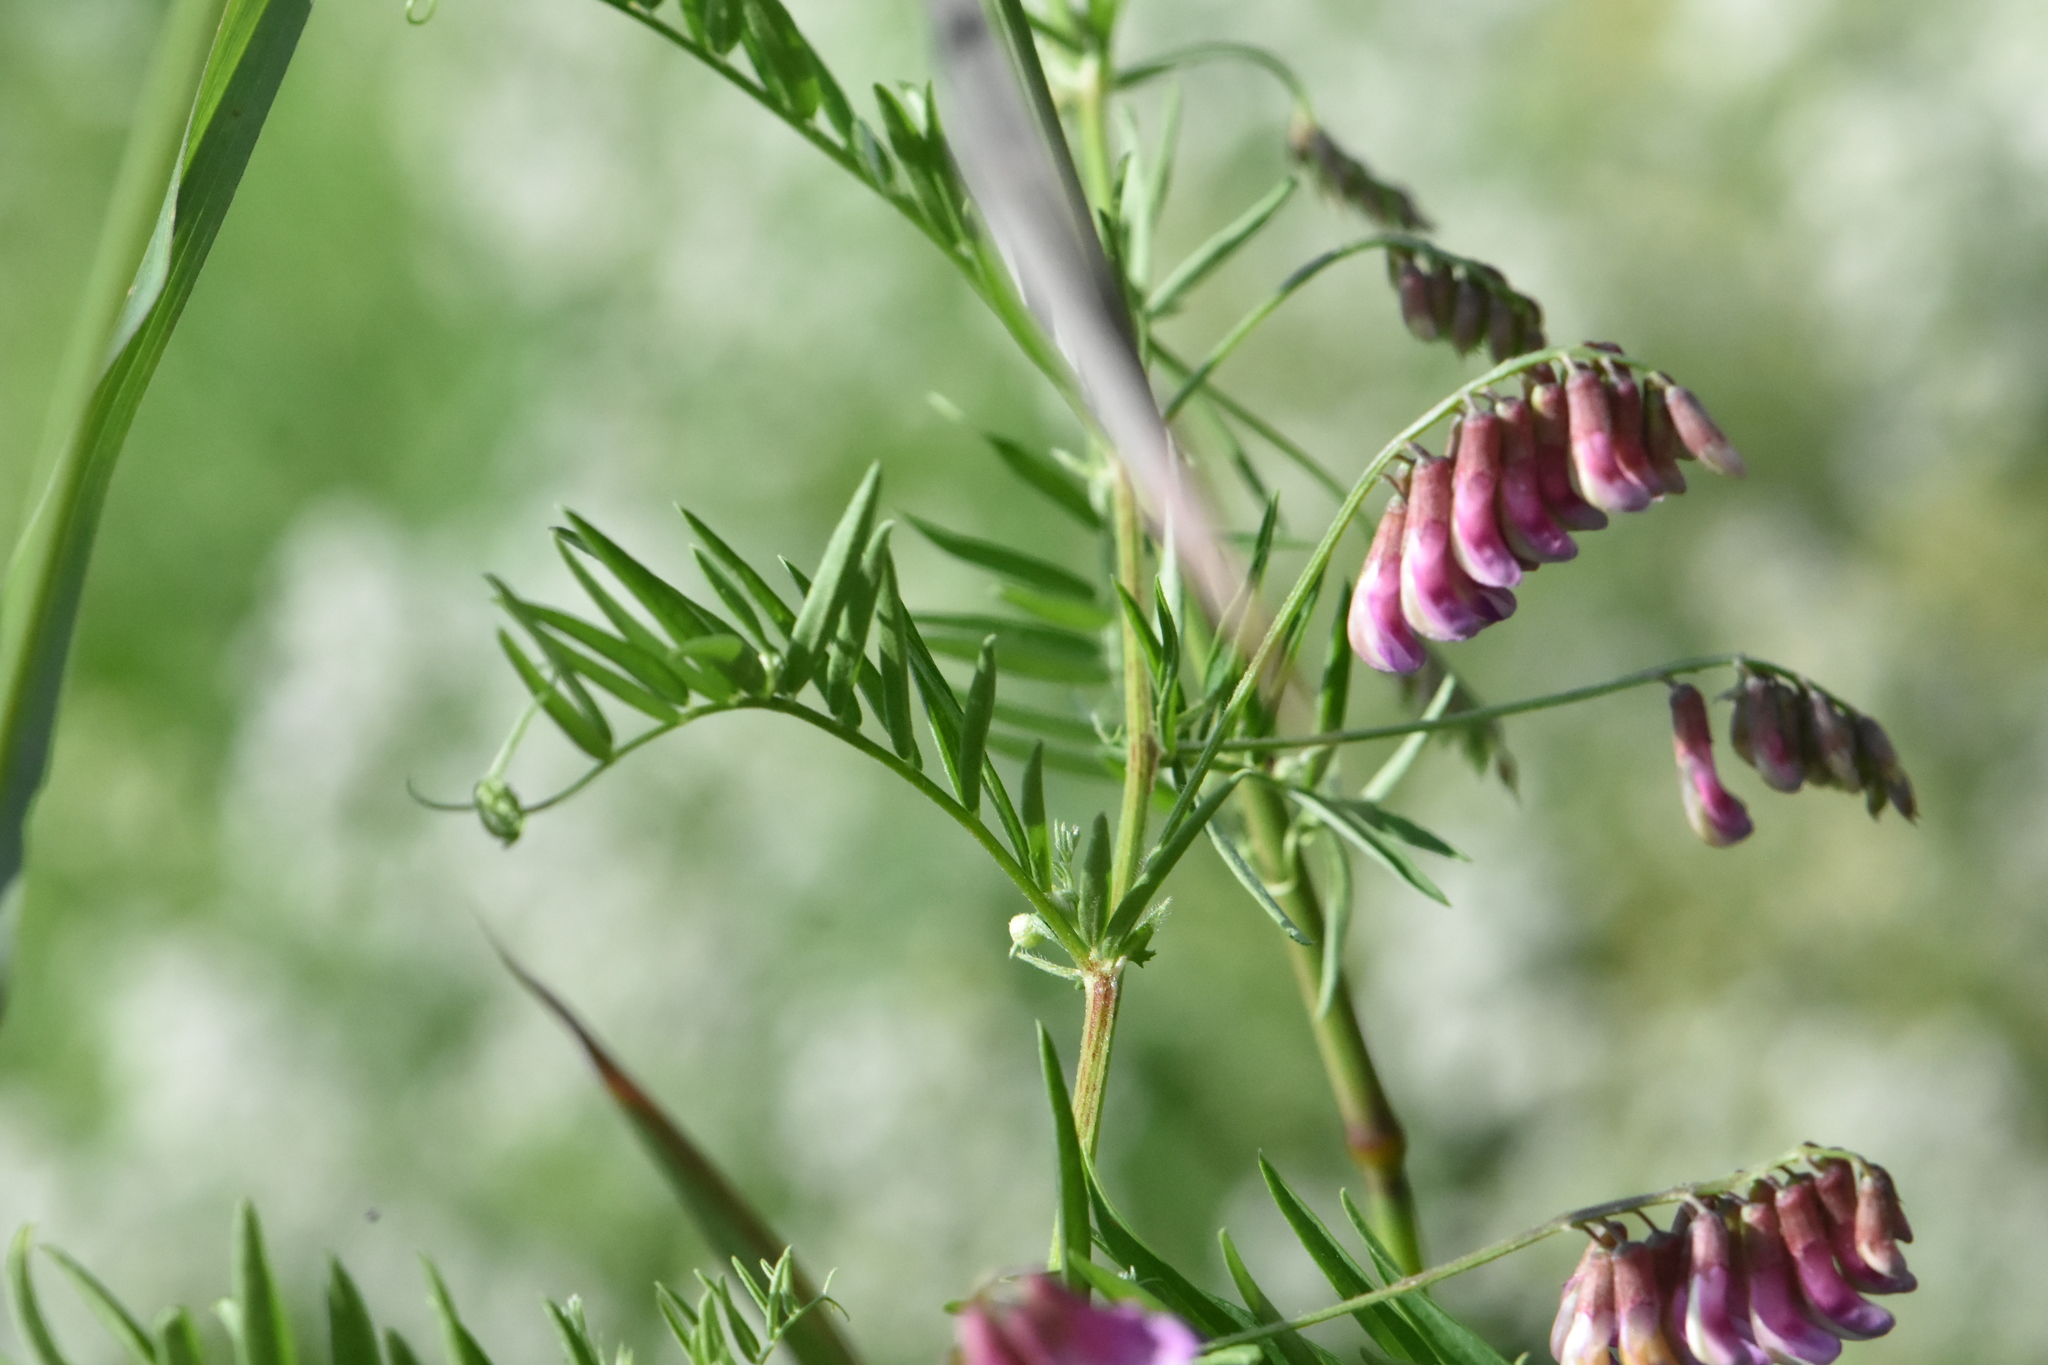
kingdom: Plantae
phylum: Tracheophyta
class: Magnoliopsida
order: Fabales
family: Fabaceae
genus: Vicia
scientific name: Vicia megalotropis
